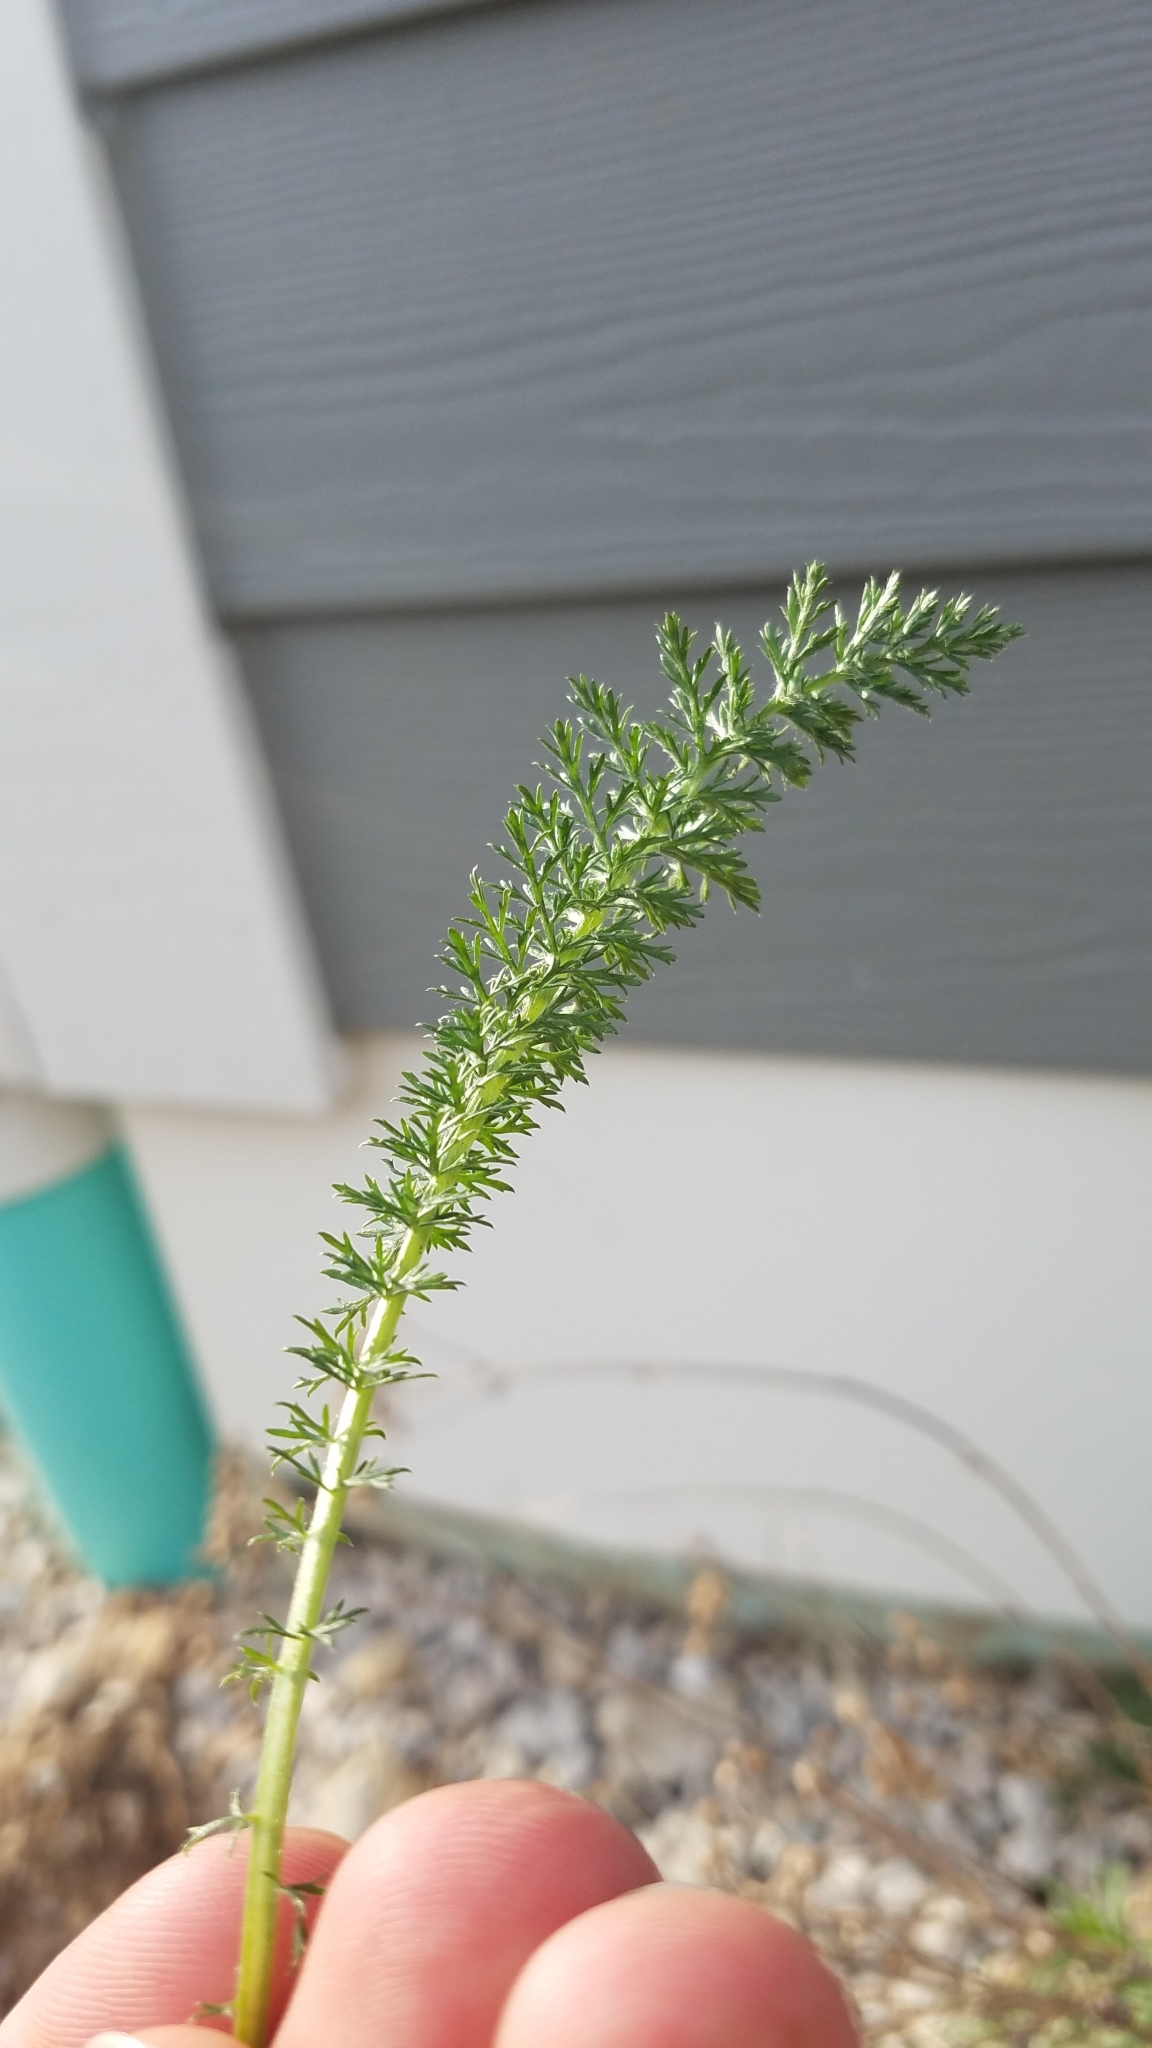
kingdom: Plantae
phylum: Tracheophyta
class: Magnoliopsida
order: Asterales
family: Asteraceae
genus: Achillea
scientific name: Achillea millefolium
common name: Yarrow
